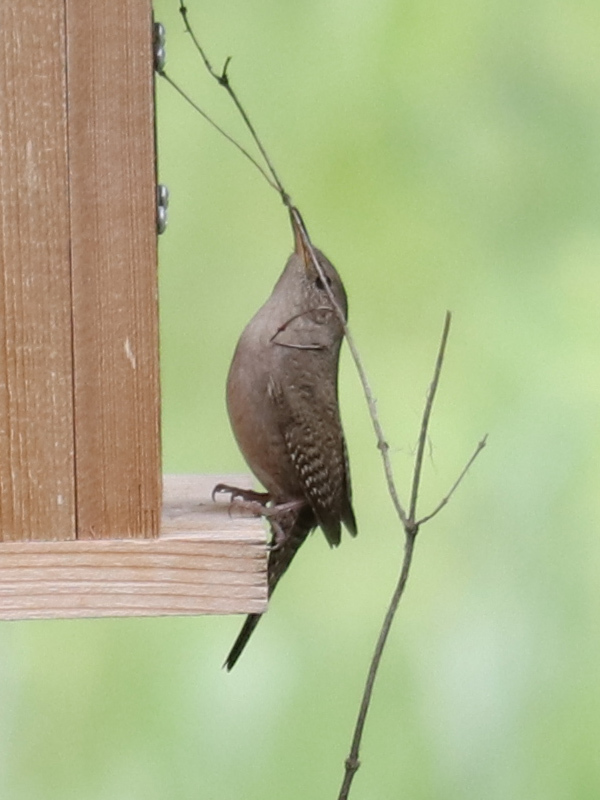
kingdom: Animalia
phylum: Chordata
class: Aves
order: Passeriformes
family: Troglodytidae
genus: Troglodytes
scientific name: Troglodytes aedon
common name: House wren
